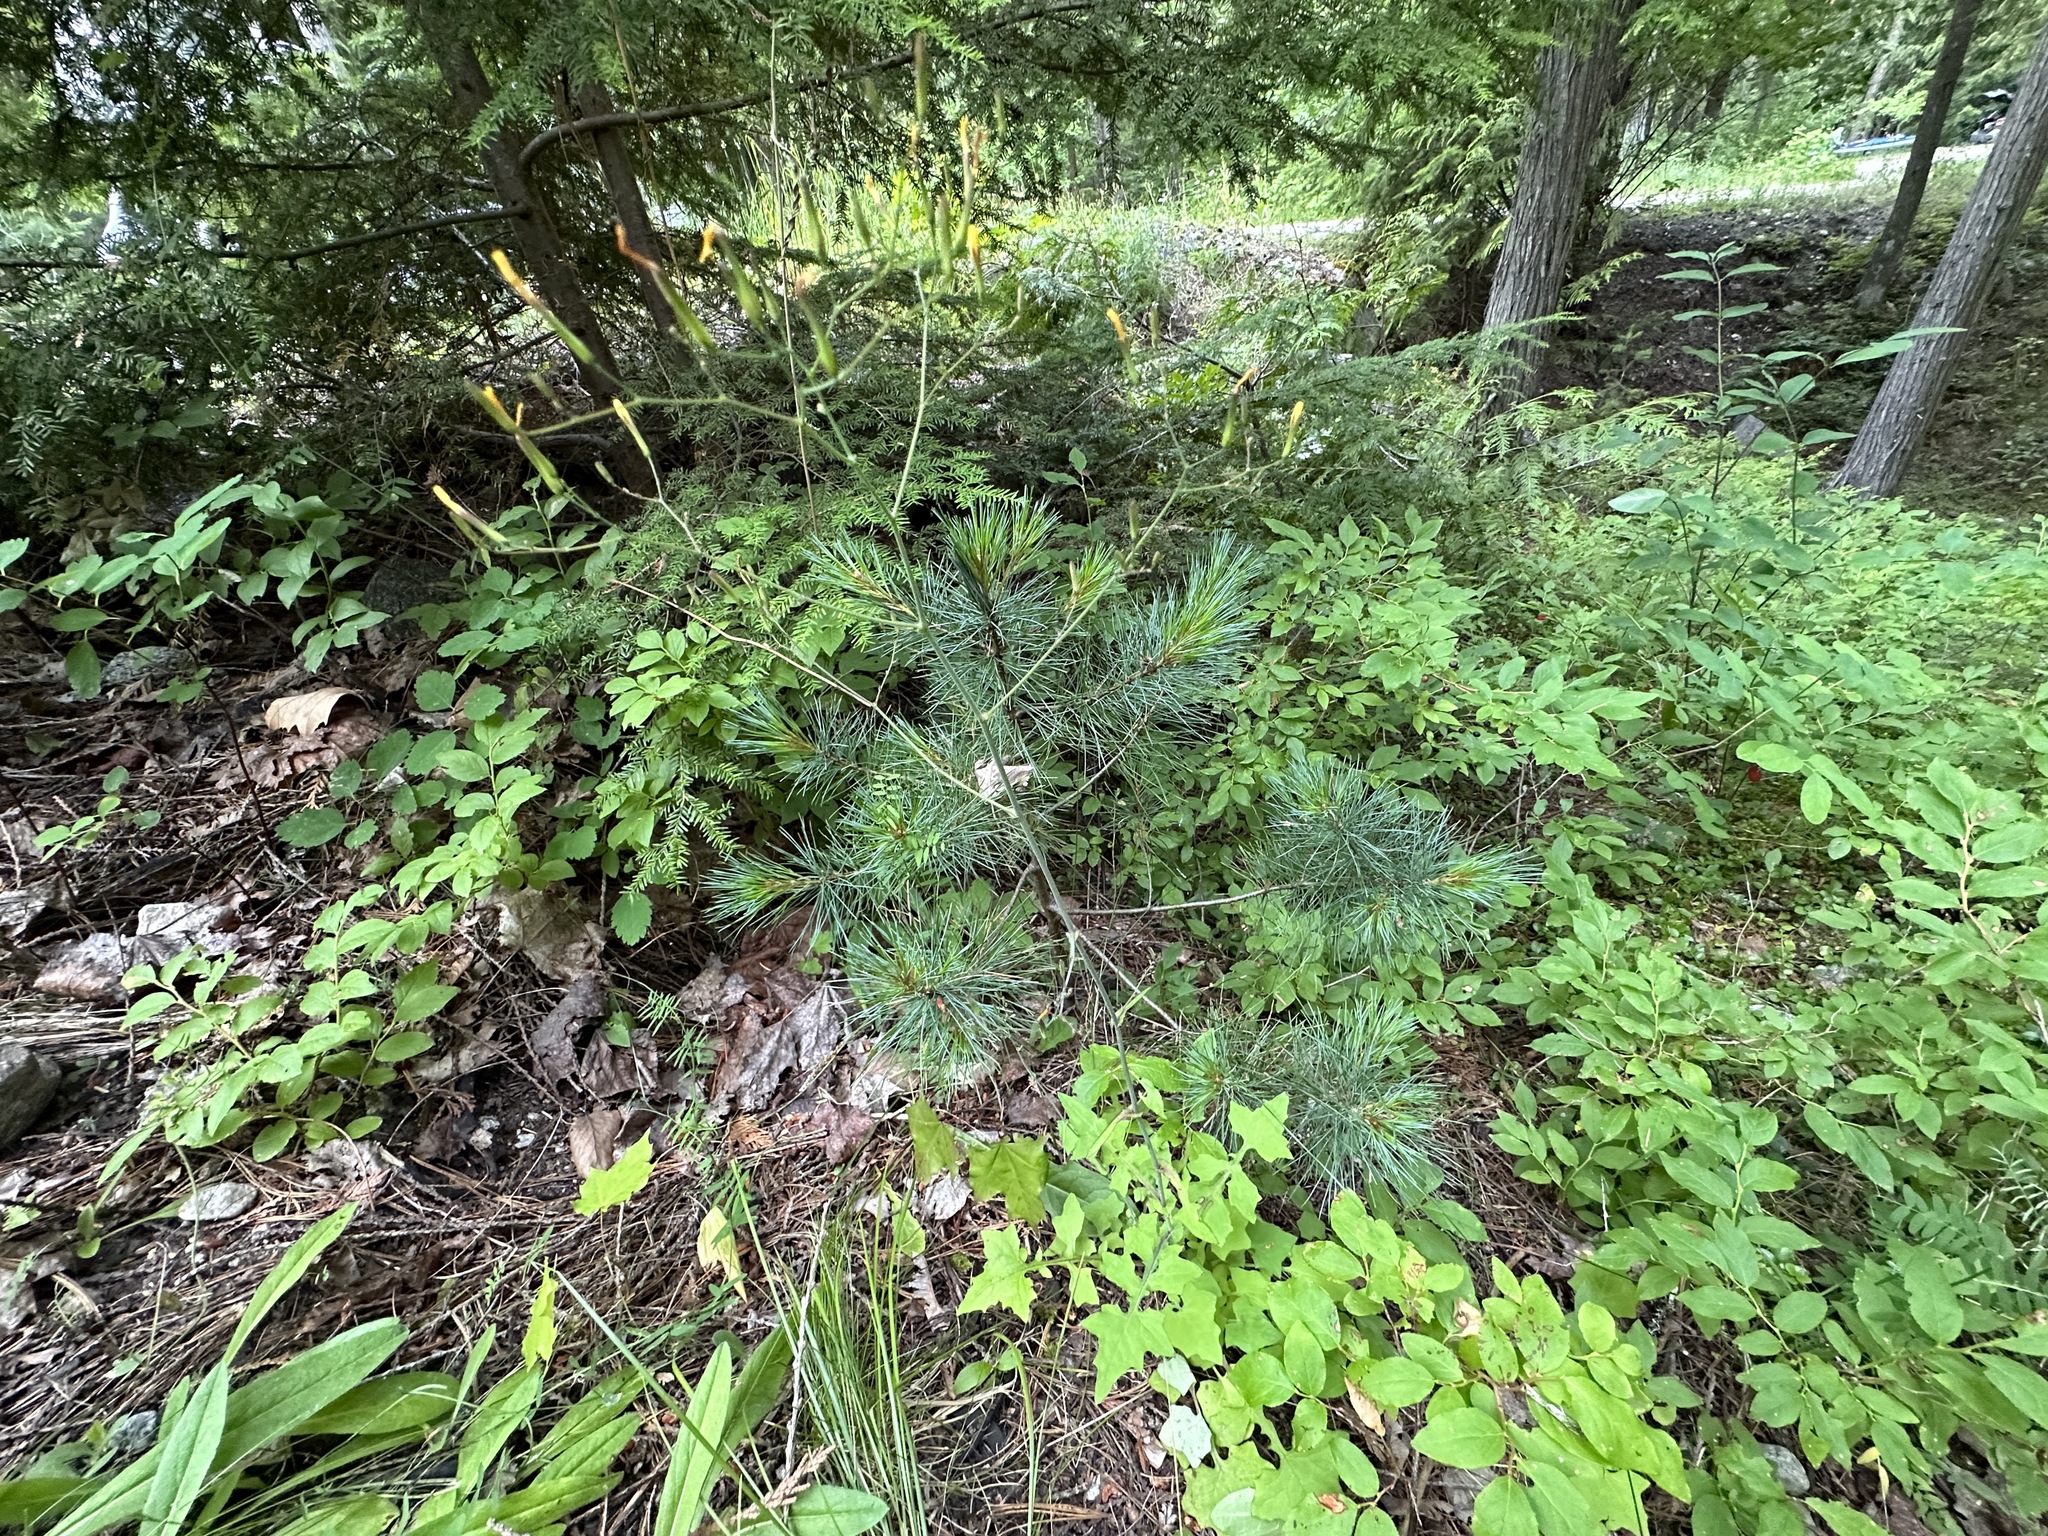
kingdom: Plantae
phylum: Tracheophyta
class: Pinopsida
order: Pinales
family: Pinaceae
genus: Pinus
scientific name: Pinus monticola
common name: Western white pine
